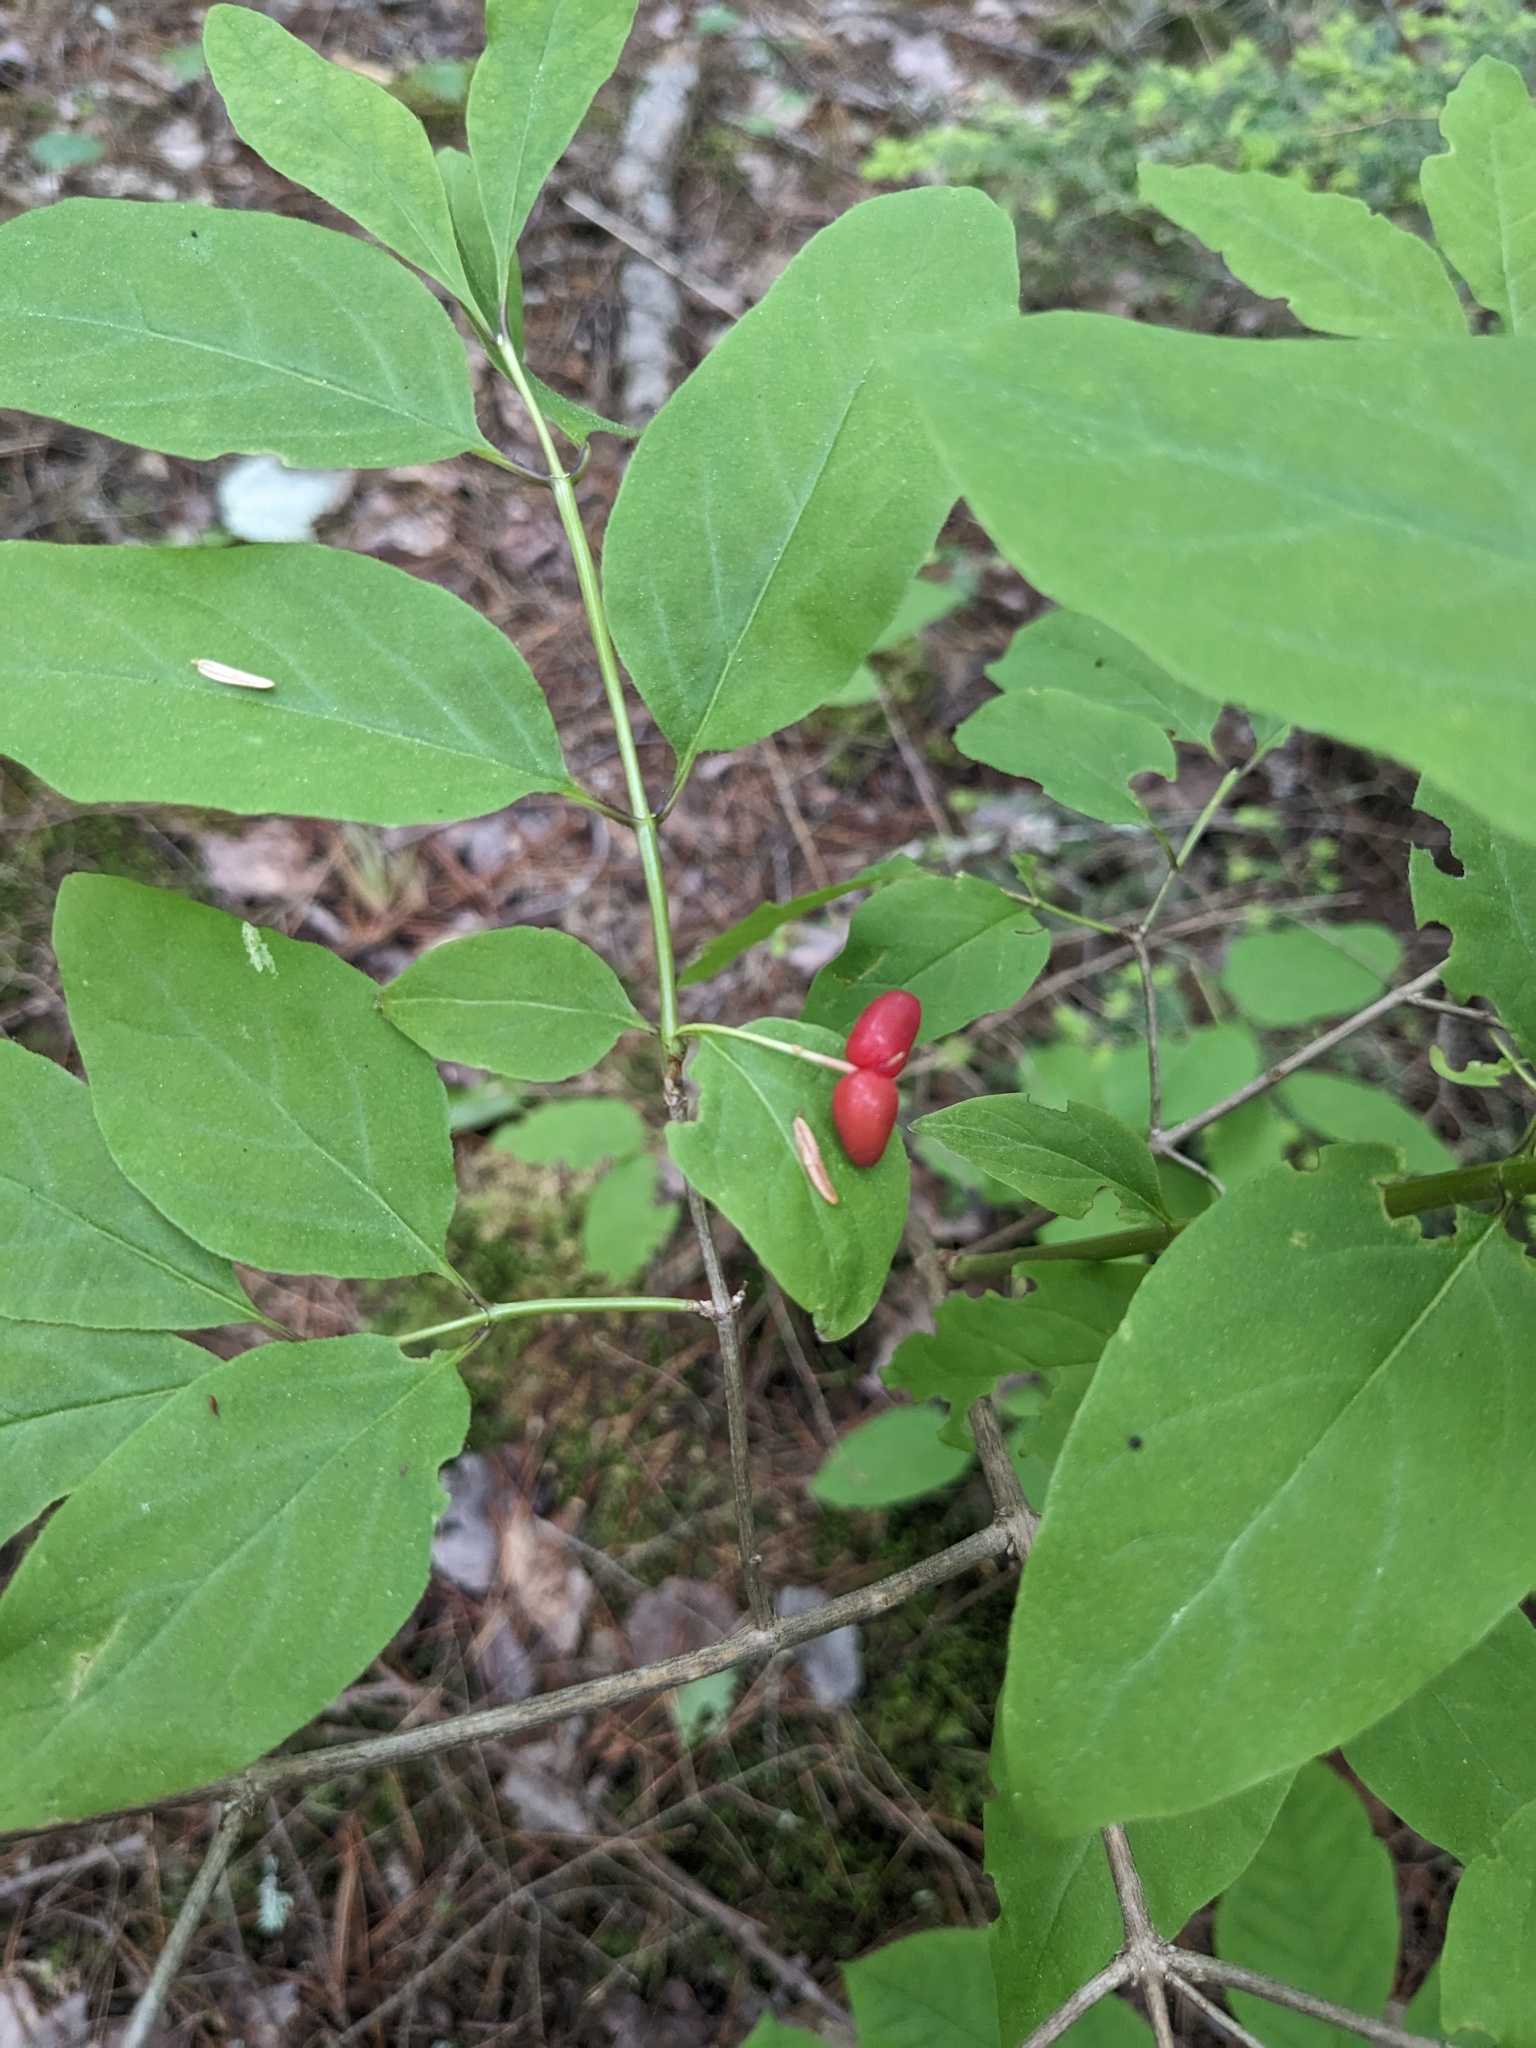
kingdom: Plantae
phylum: Tracheophyta
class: Magnoliopsida
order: Dipsacales
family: Caprifoliaceae
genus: Lonicera
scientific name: Lonicera canadensis
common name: American fly-honeysuckle
